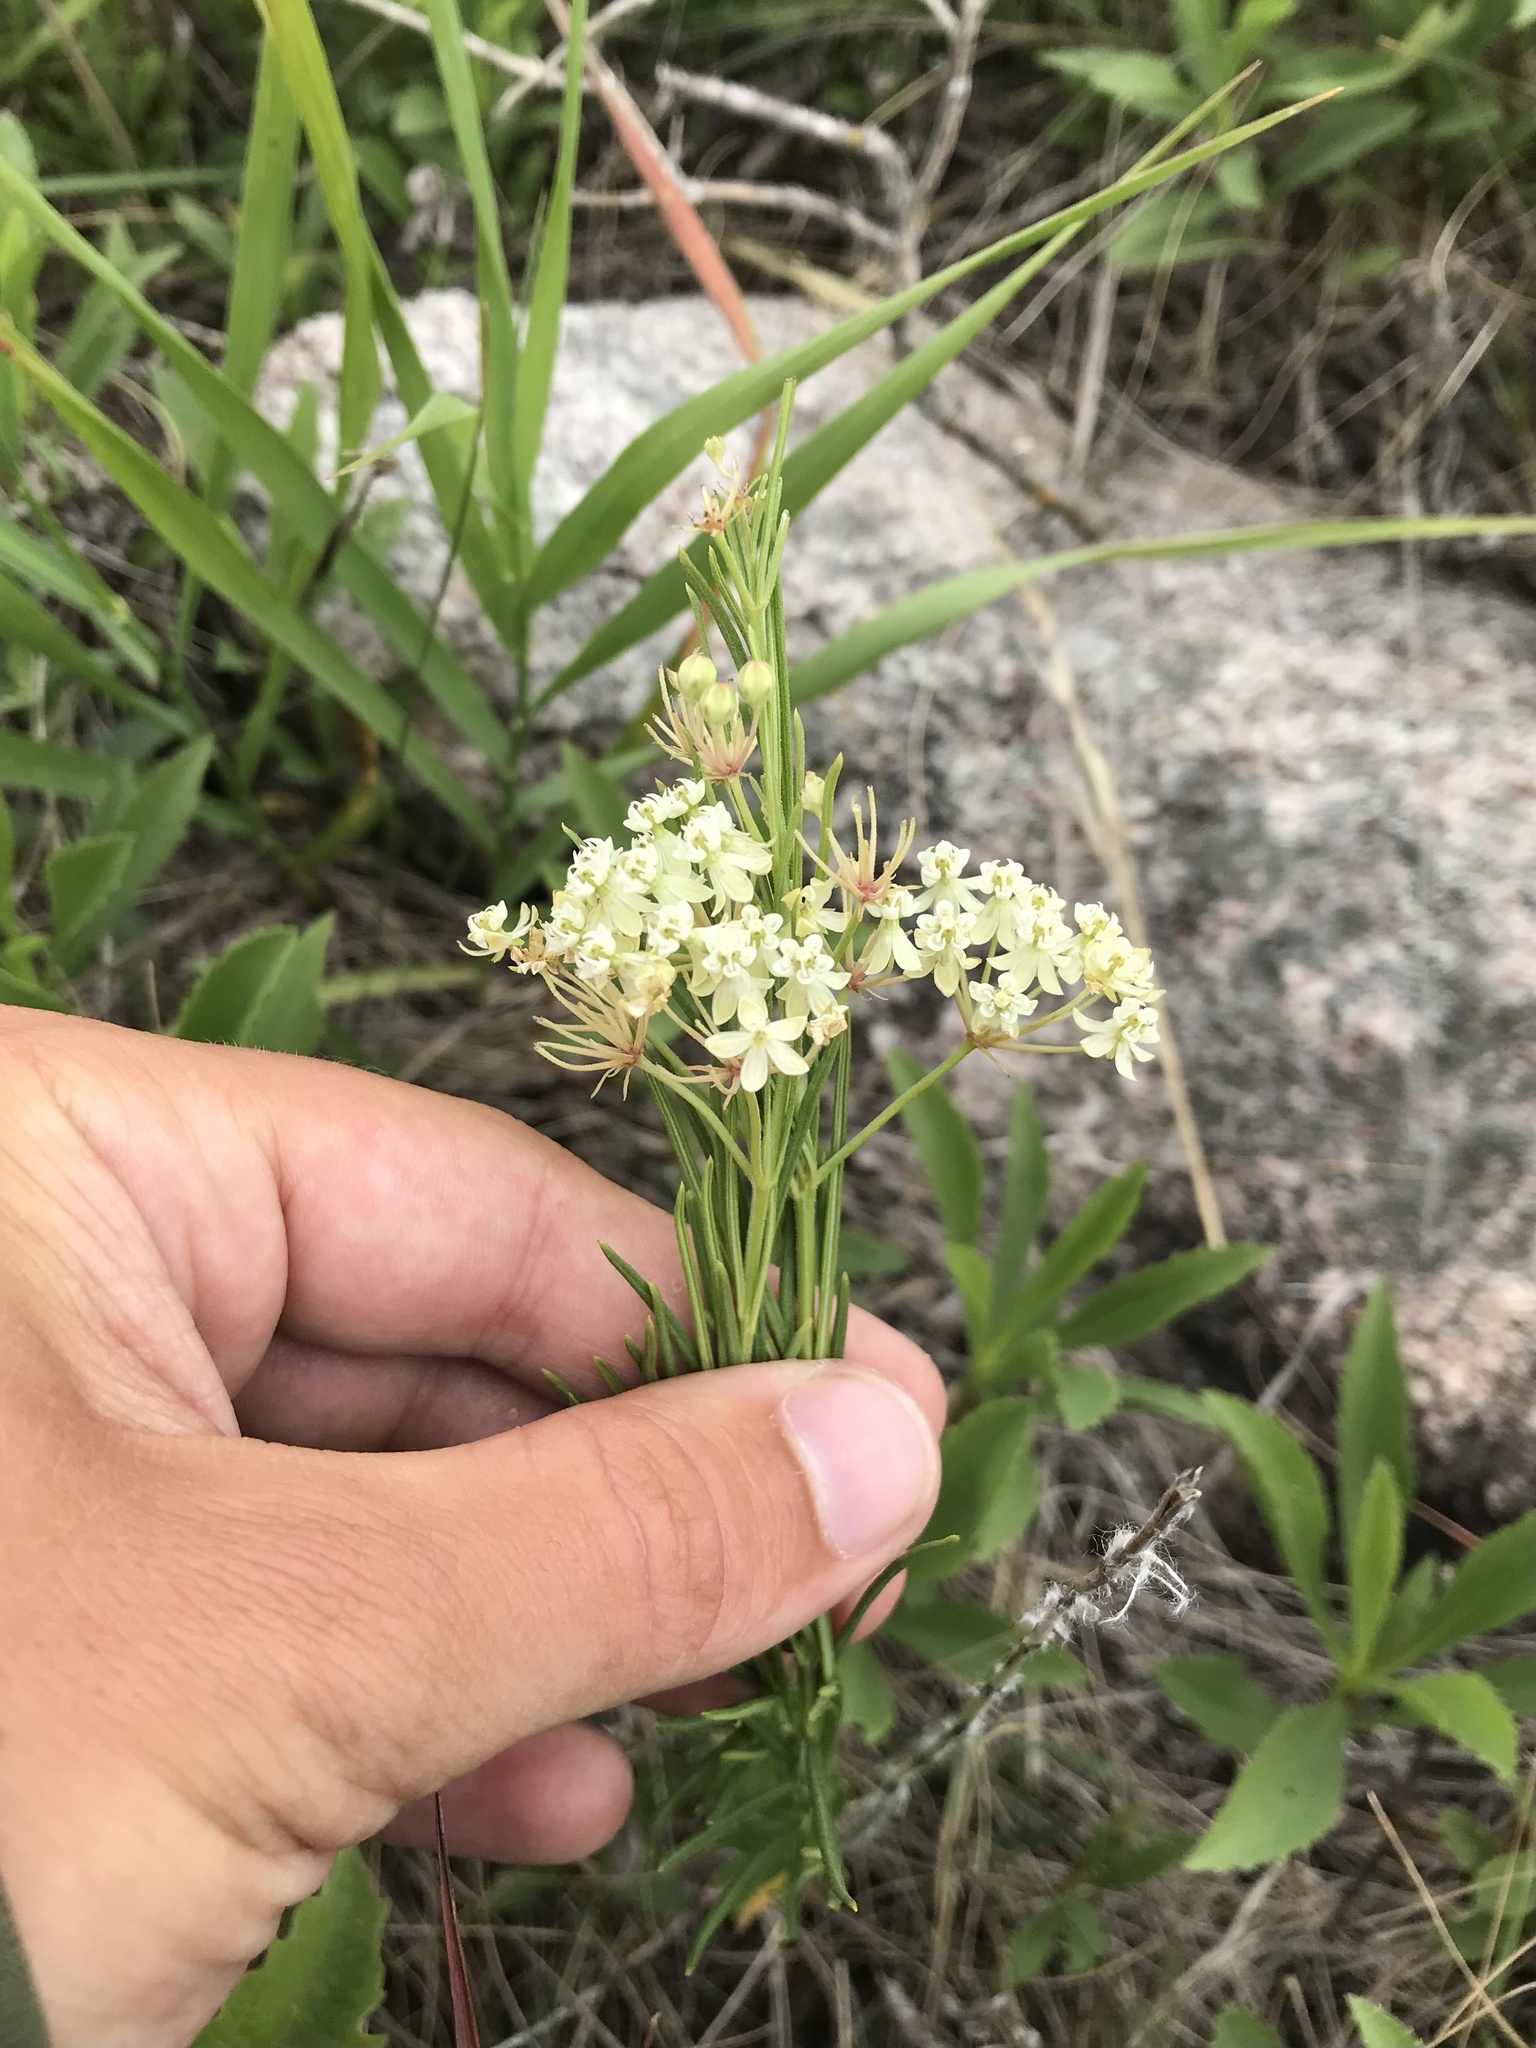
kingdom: Plantae
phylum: Tracheophyta
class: Magnoliopsida
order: Gentianales
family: Apocynaceae
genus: Asclepias
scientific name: Asclepias verticillata
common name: Eastern whorled milkweed
